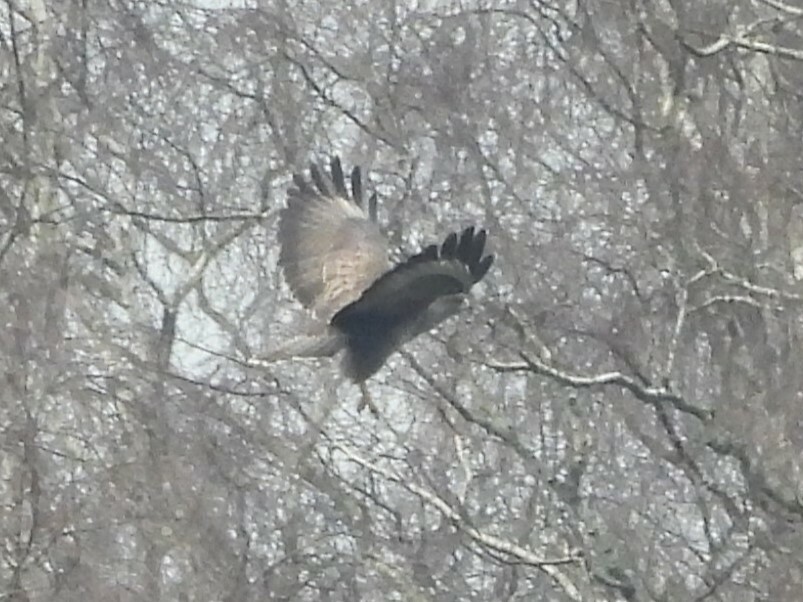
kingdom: Animalia
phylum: Chordata
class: Aves
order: Accipitriformes
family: Accipitridae
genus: Buteo
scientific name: Buteo buteo
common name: Common buzzard
